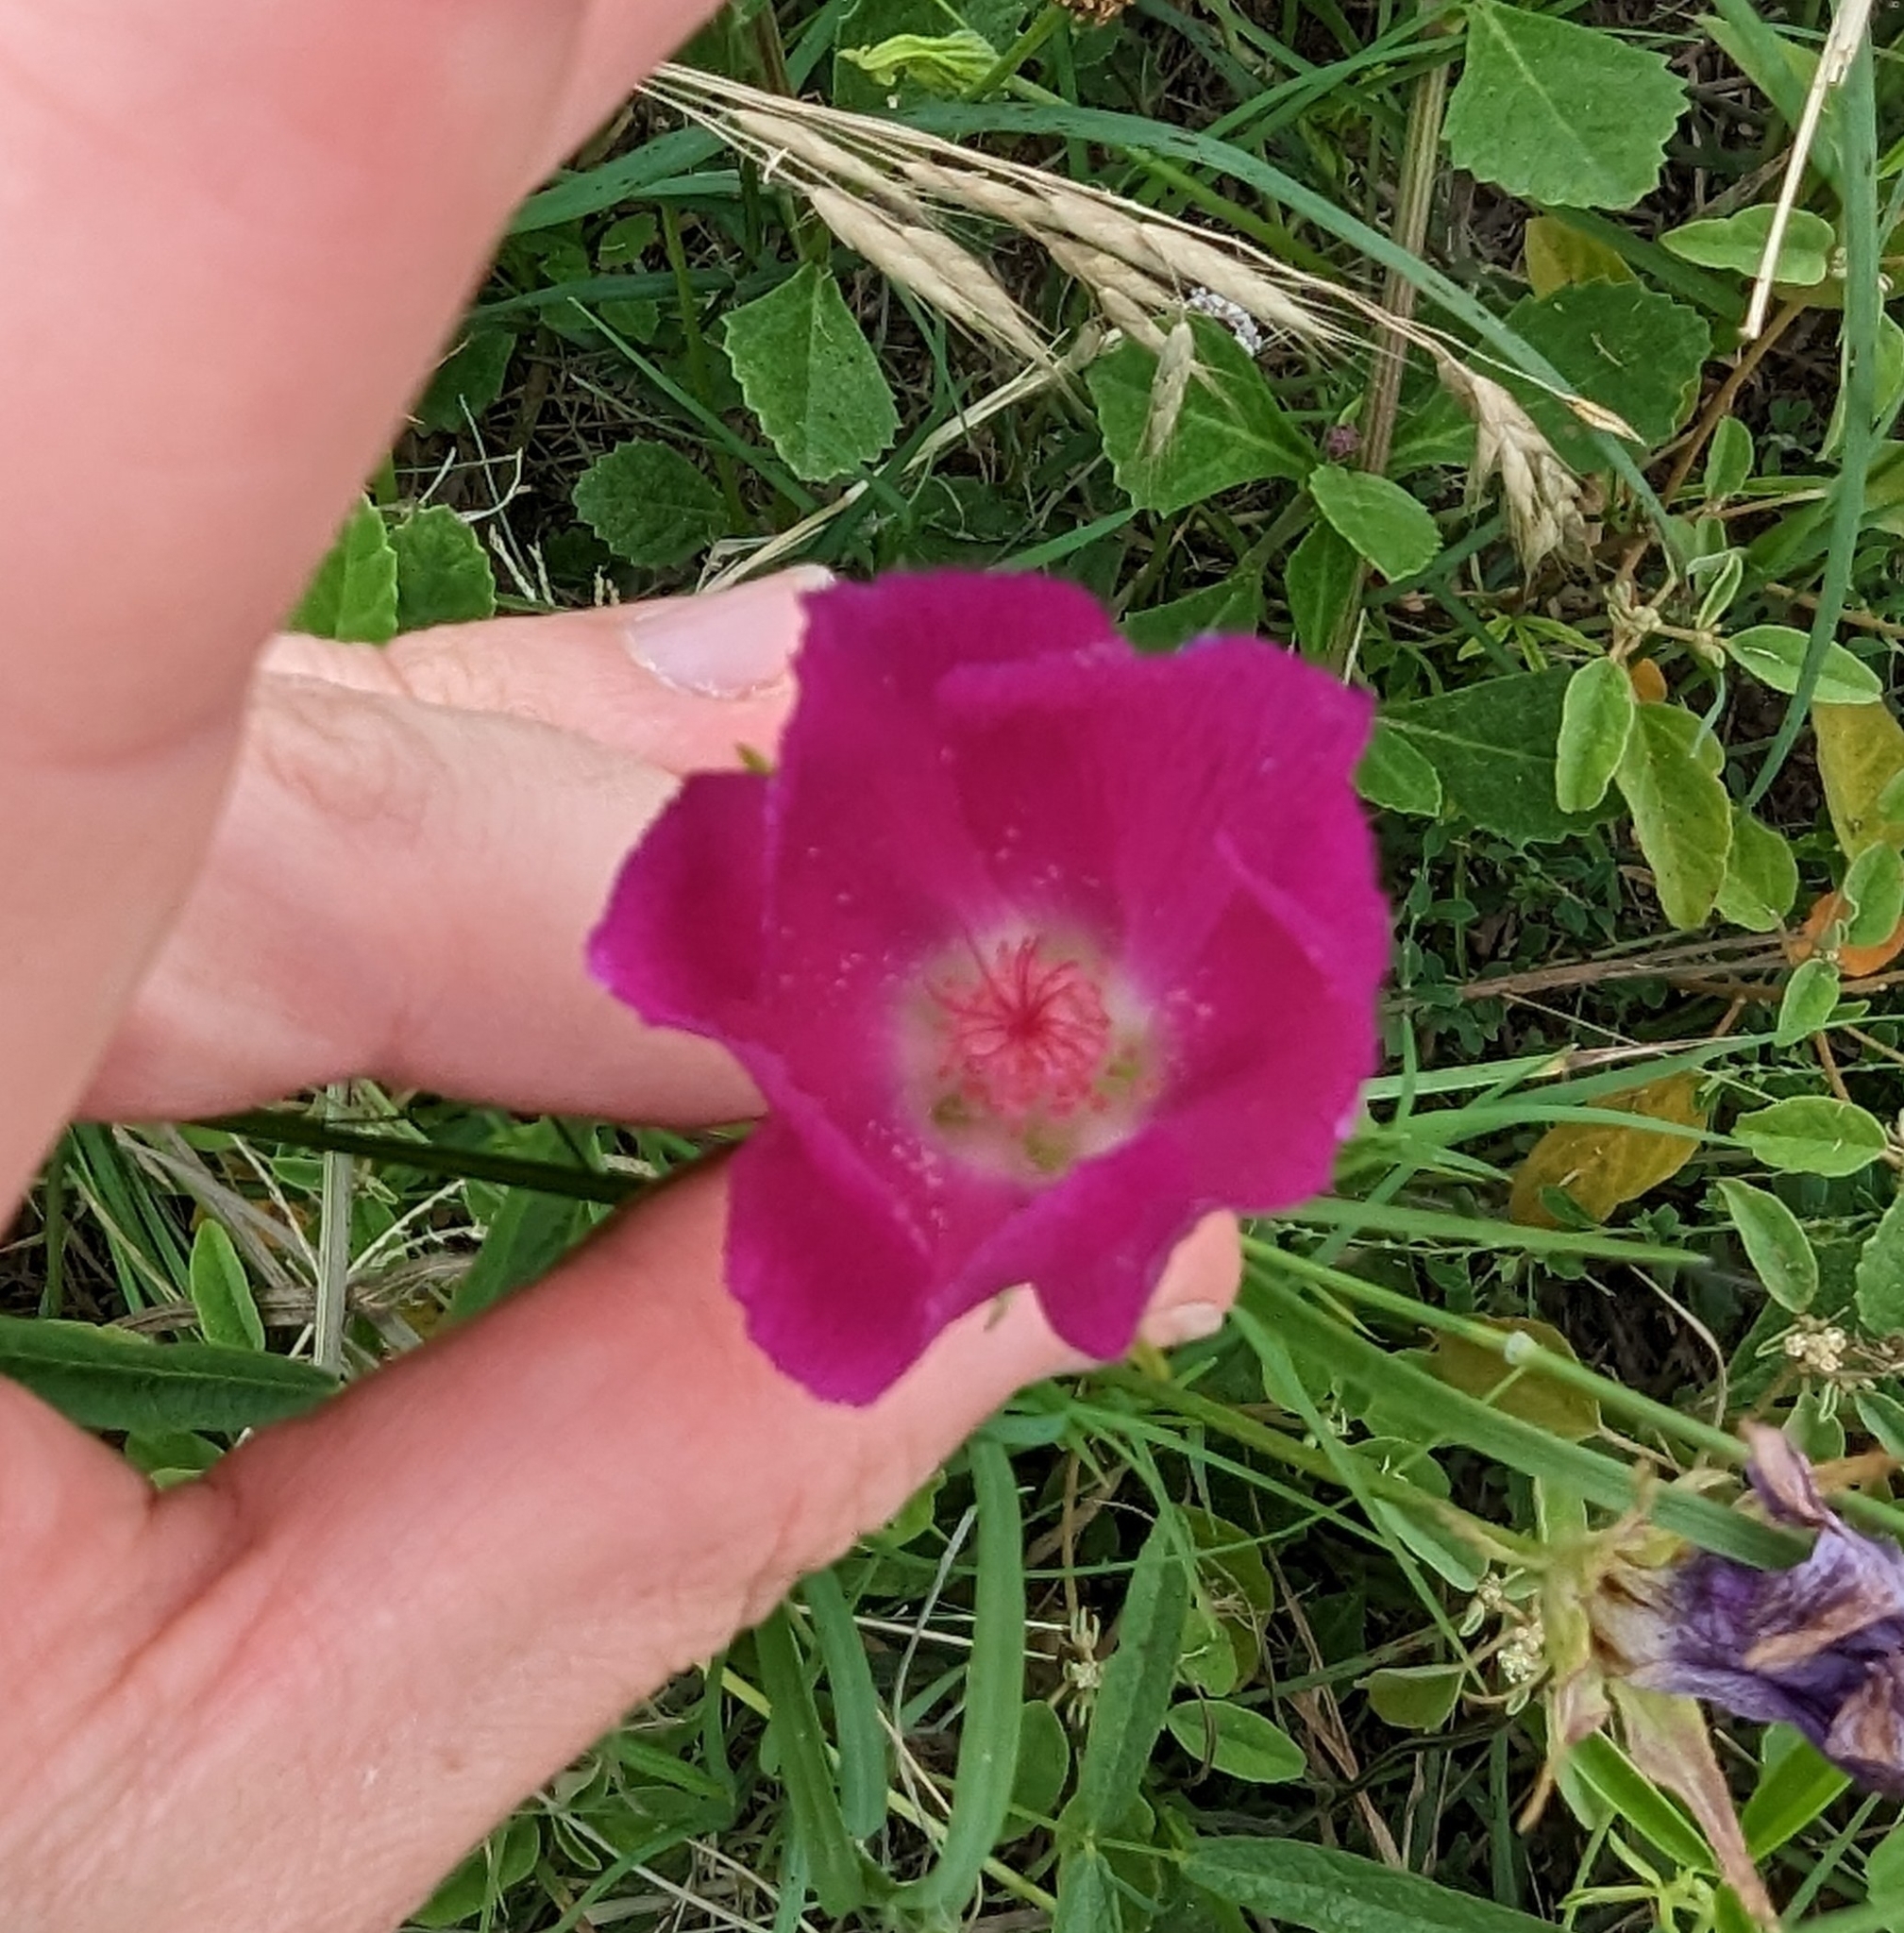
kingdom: Plantae
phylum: Tracheophyta
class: Magnoliopsida
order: Malvales
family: Malvaceae
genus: Callirhoe
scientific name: Callirhoe involucrata
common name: Purple poppy-mallow
